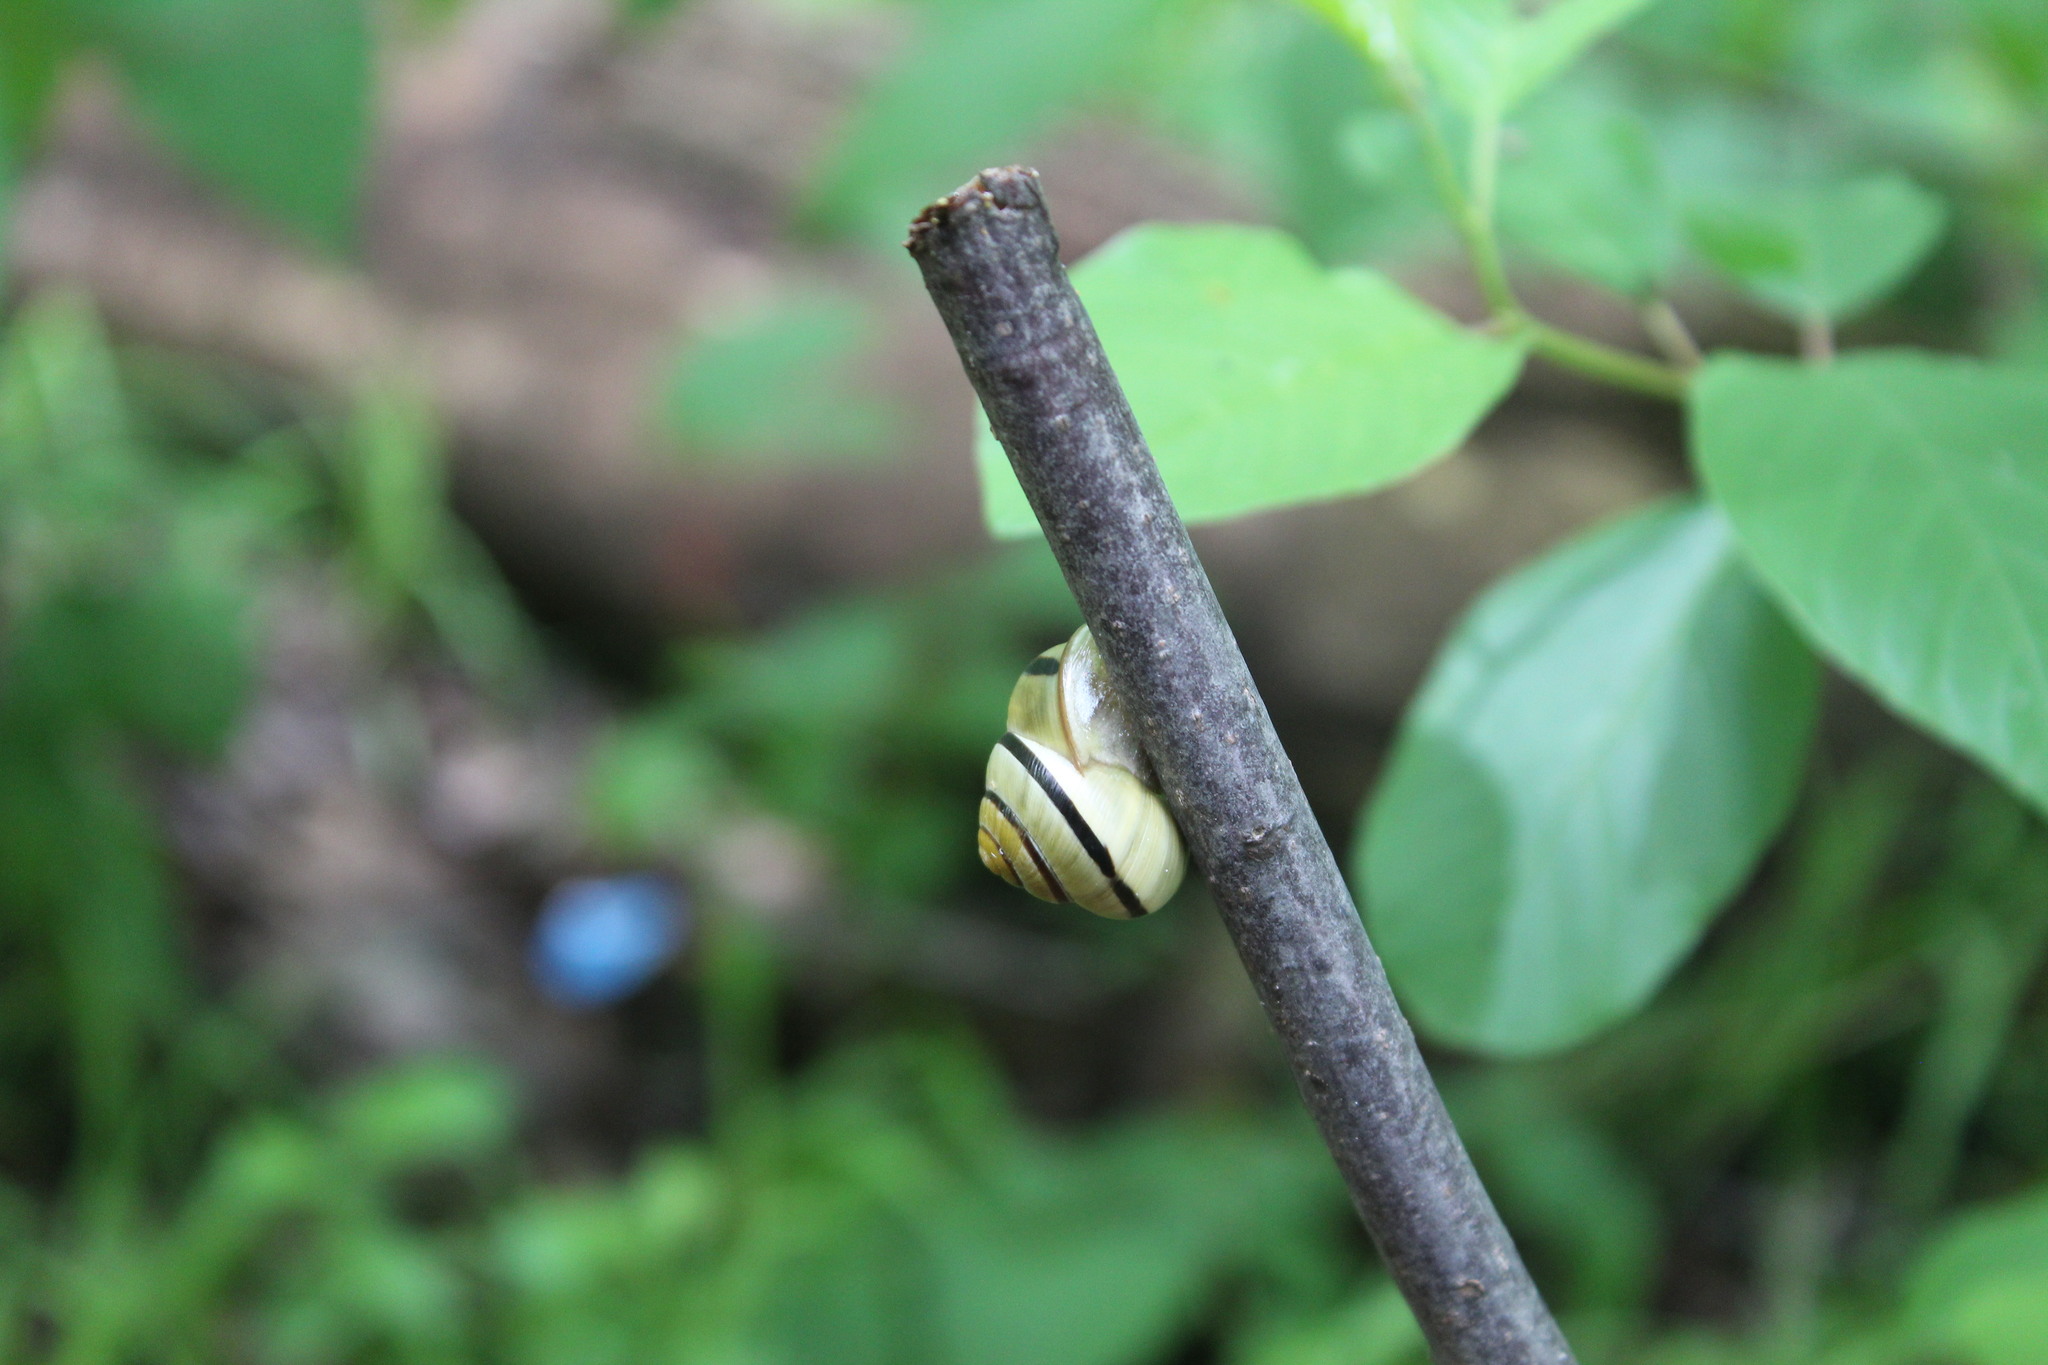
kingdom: Animalia
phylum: Mollusca
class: Gastropoda
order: Stylommatophora
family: Helicidae
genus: Cepaea
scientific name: Cepaea nemoralis
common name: Grovesnail
